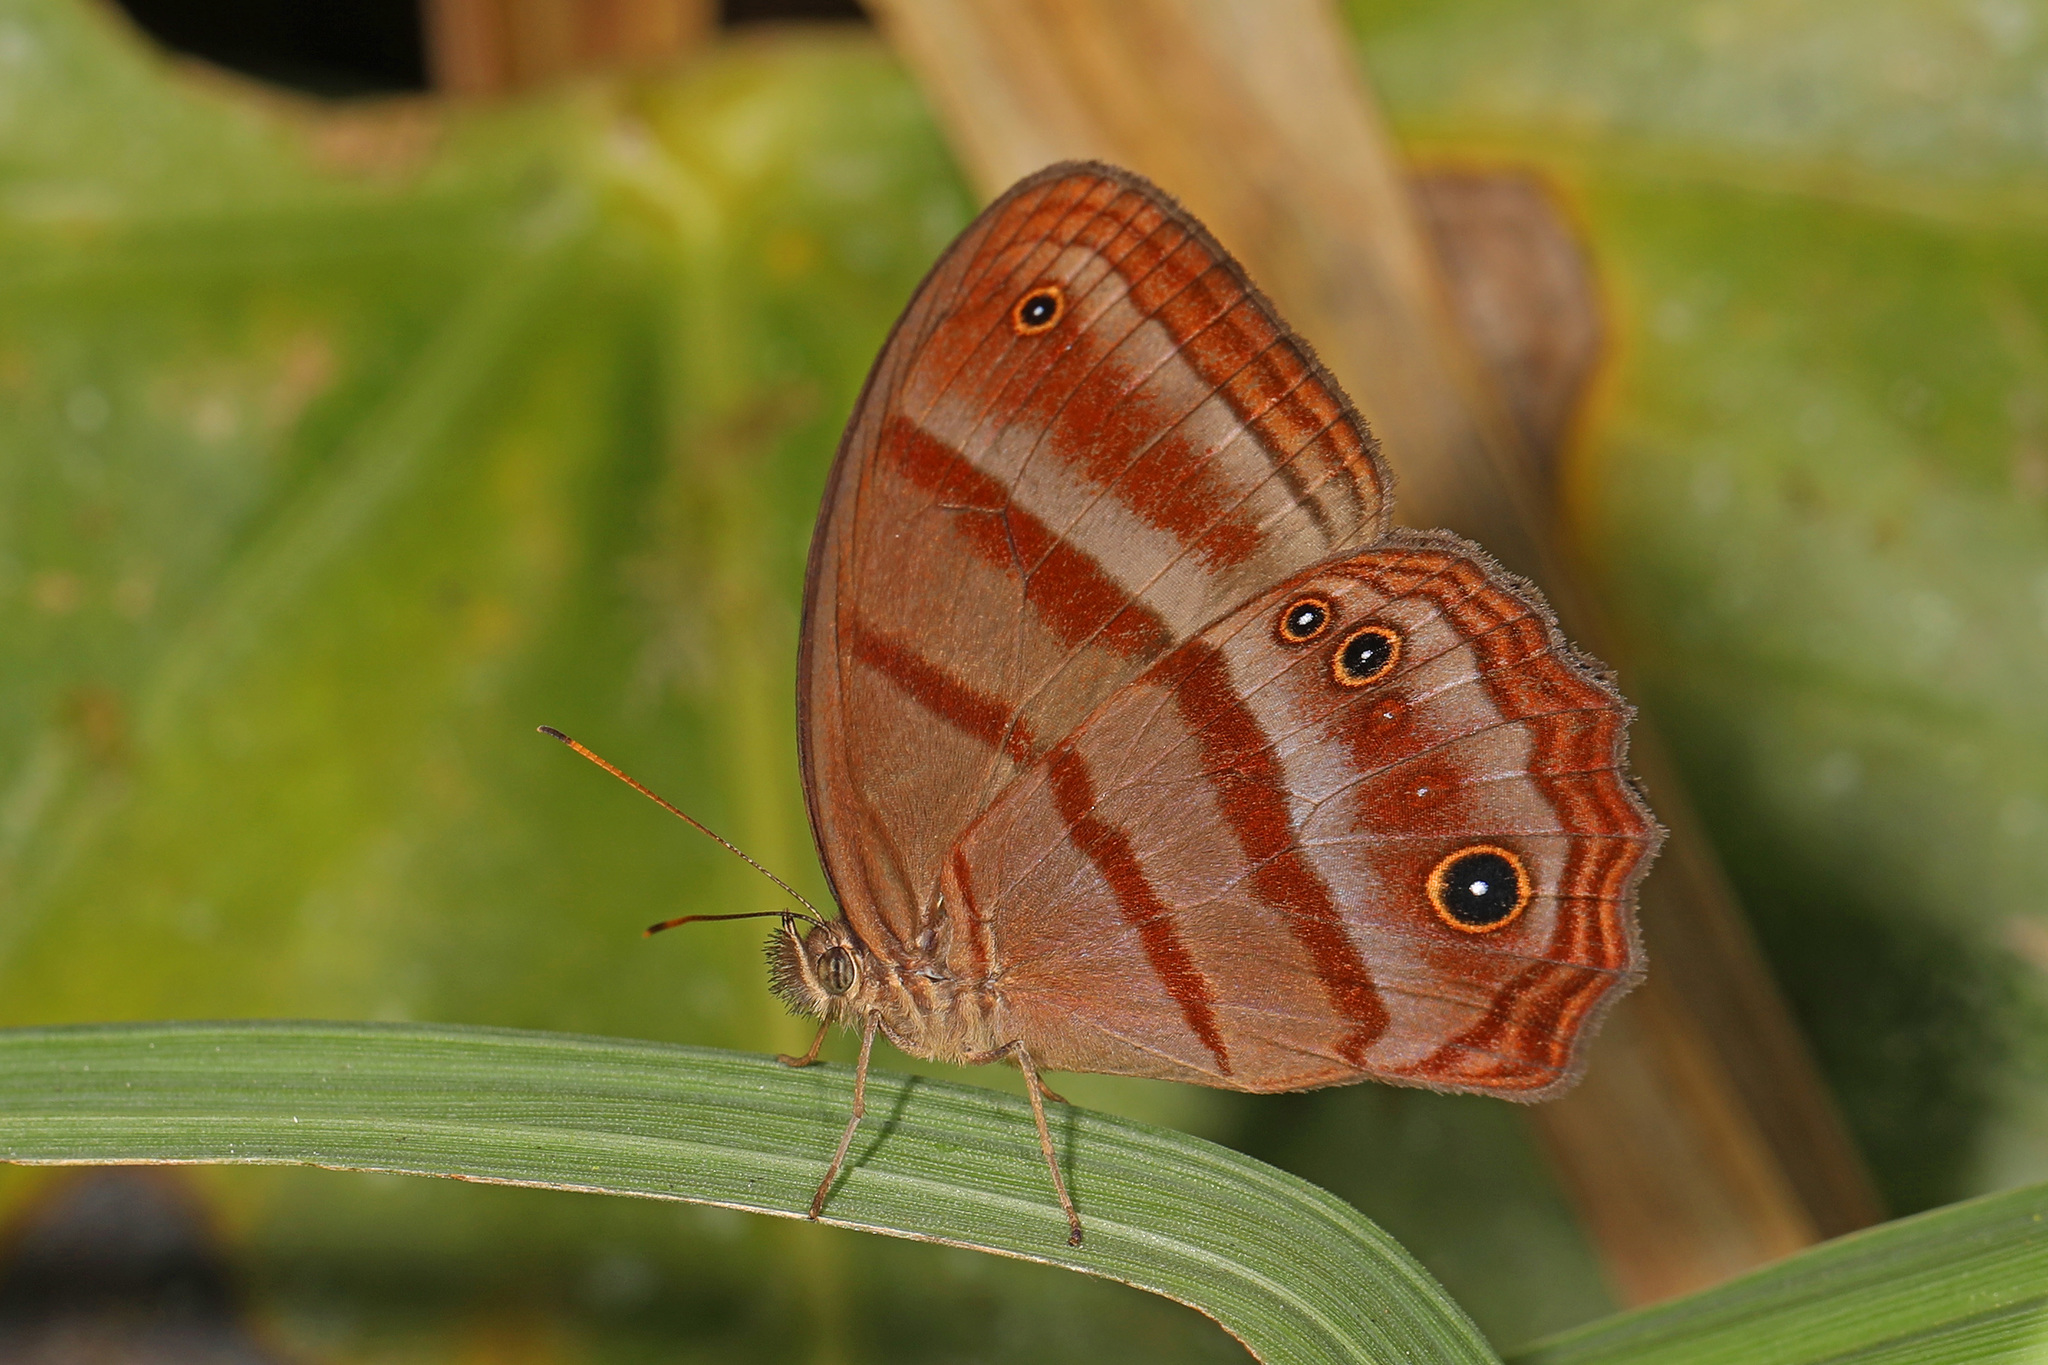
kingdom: Animalia
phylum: Arthropoda
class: Insecta
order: Lepidoptera
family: Nymphalidae
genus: Satyrotaygetis
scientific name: Satyrotaygetis
